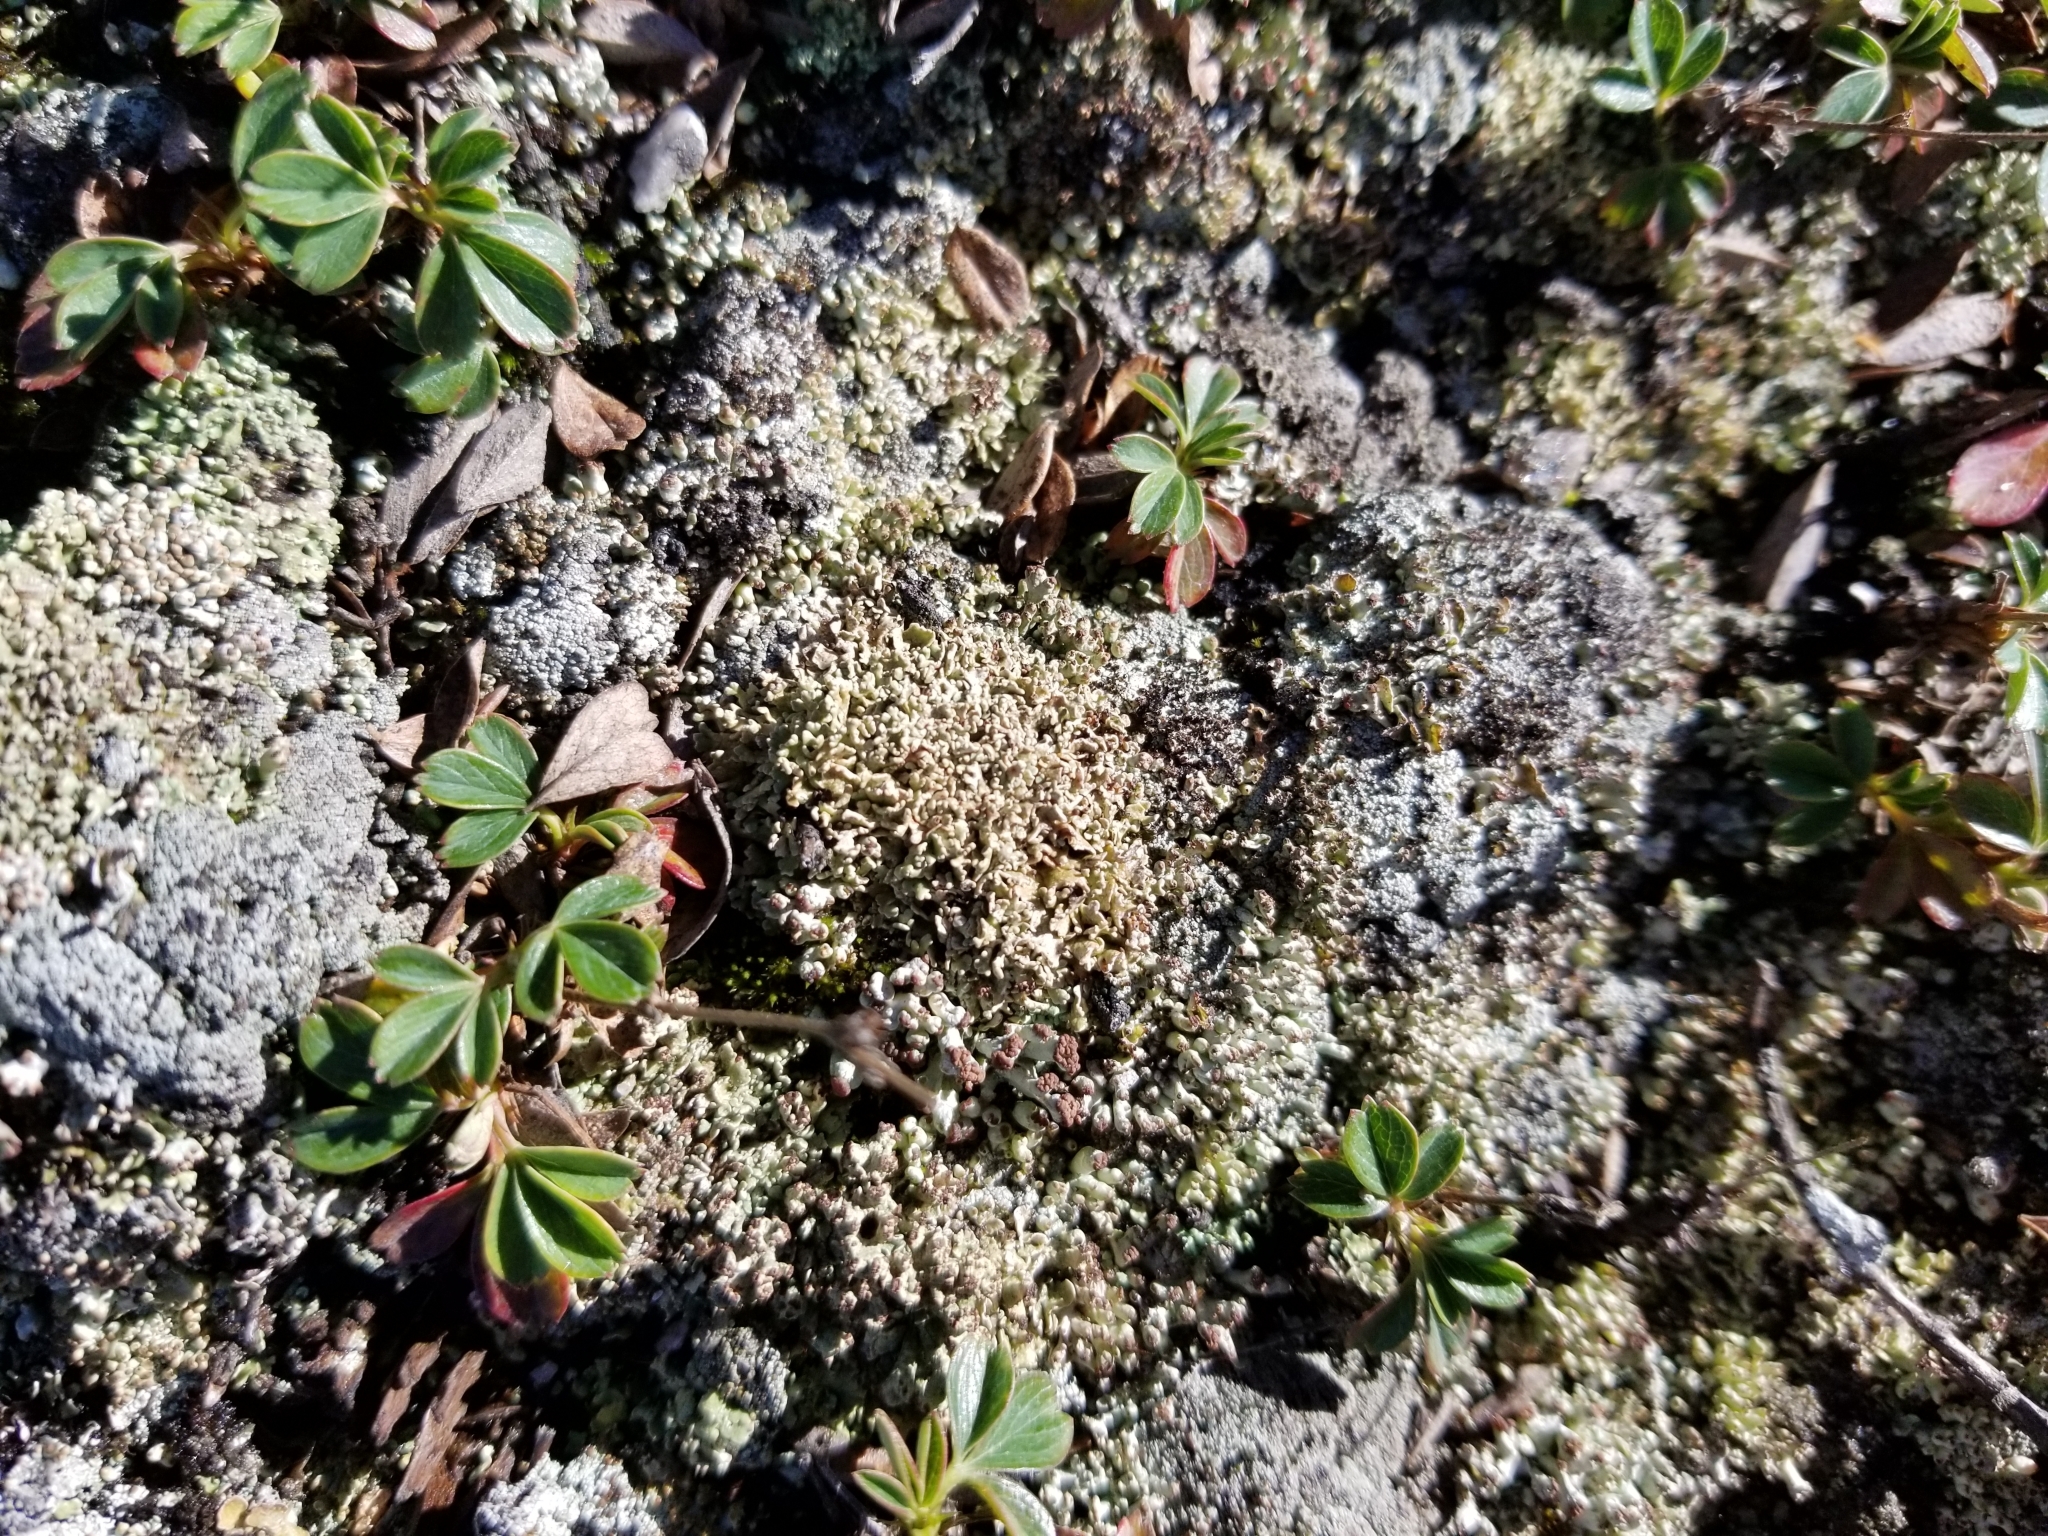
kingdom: Plantae
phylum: Tracheophyta
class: Magnoliopsida
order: Rosales
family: Rosaceae
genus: Sibbaldia
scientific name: Sibbaldia tridentata
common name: Three-toothed cinquefoil
